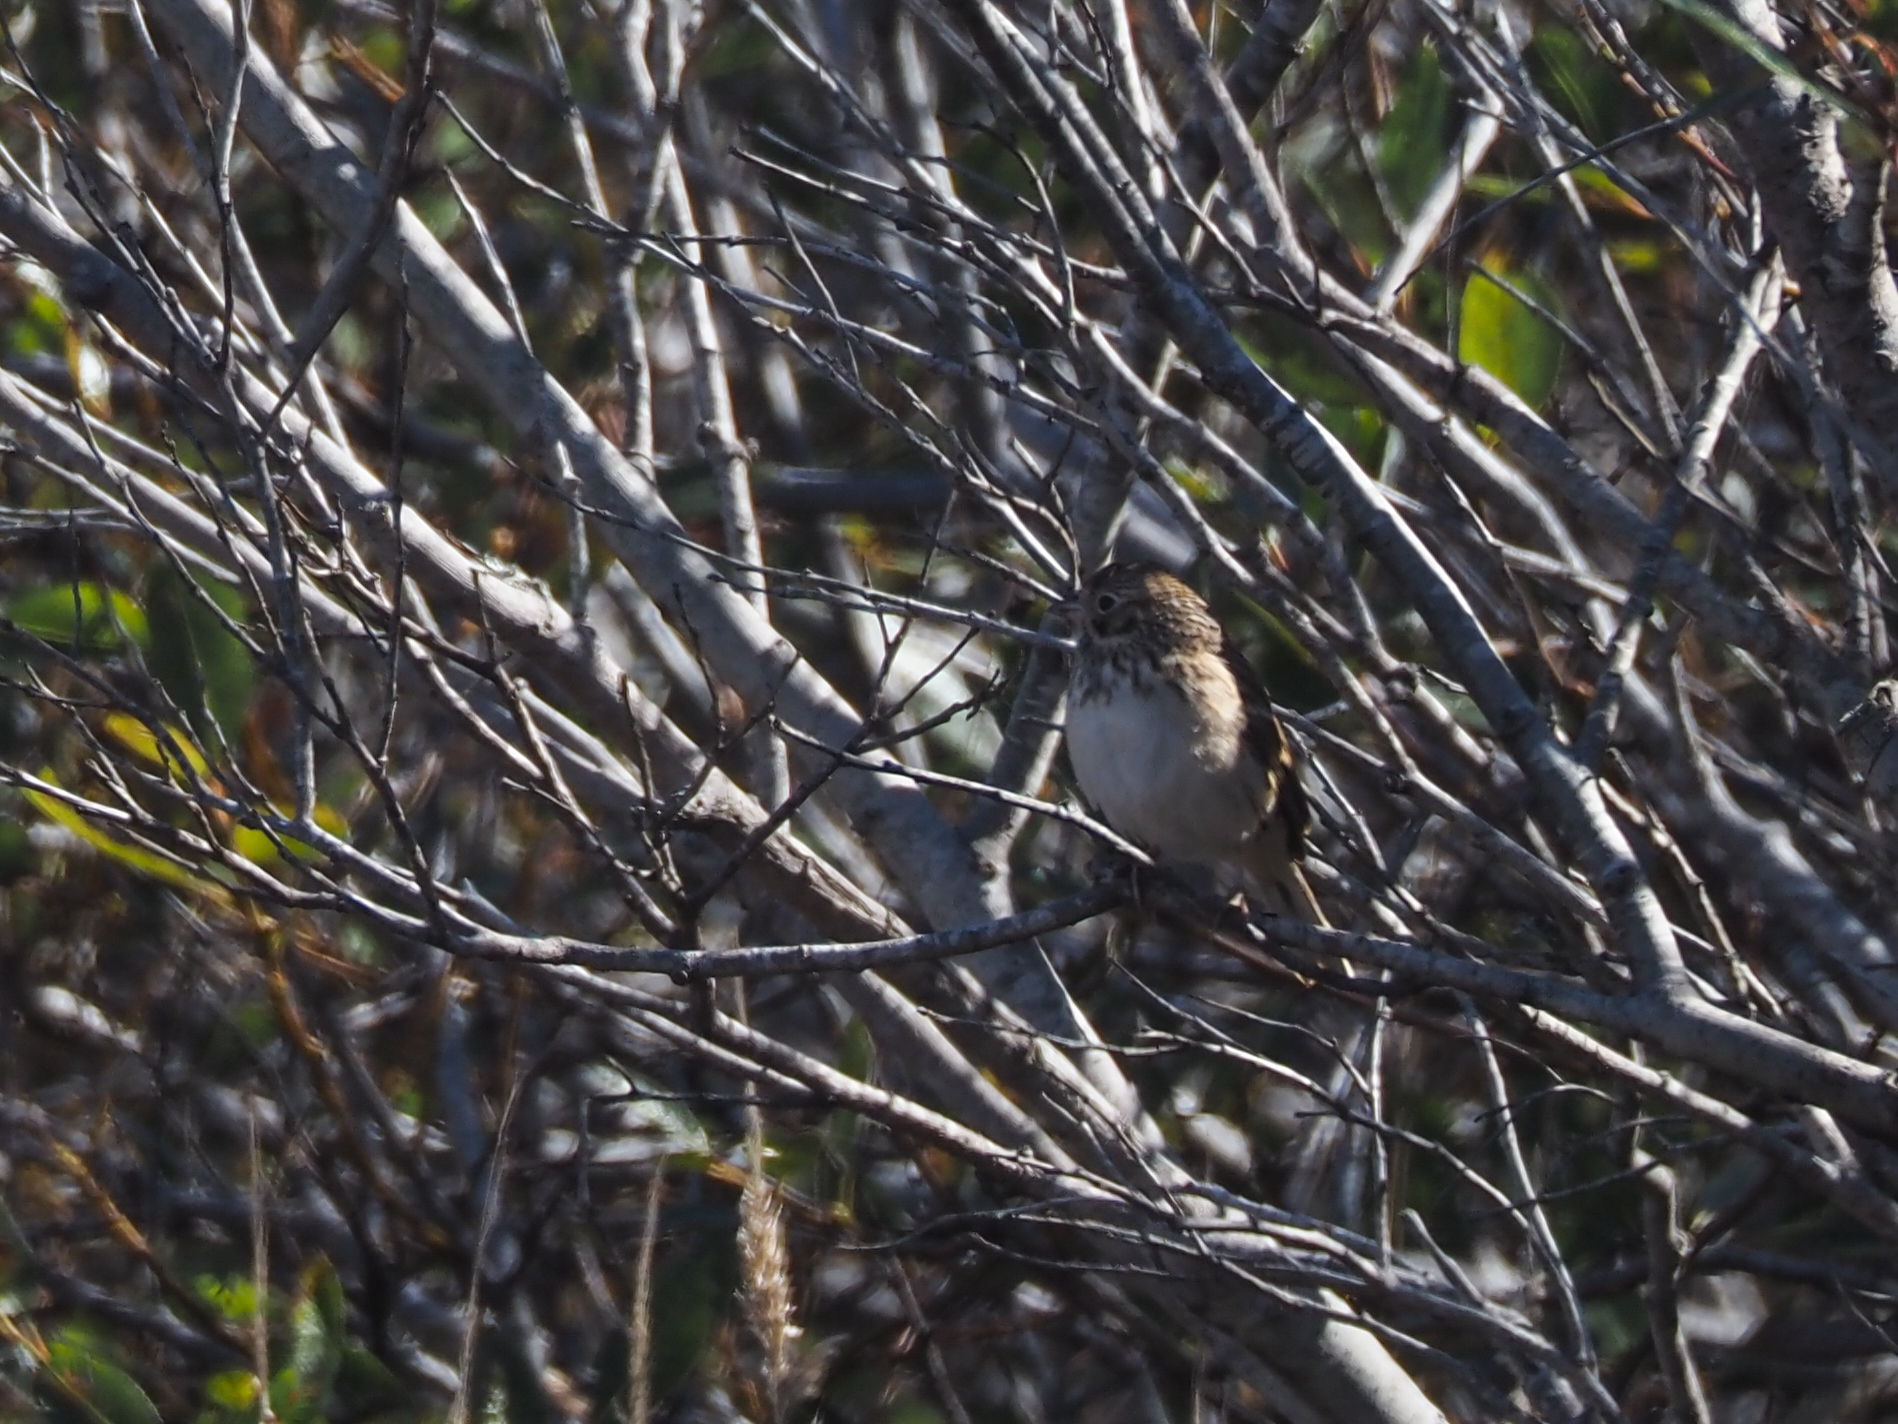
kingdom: Animalia
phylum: Chordata
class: Aves
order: Passeriformes
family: Passerellidae
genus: Pooecetes
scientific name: Pooecetes gramineus
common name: Vesper sparrow
